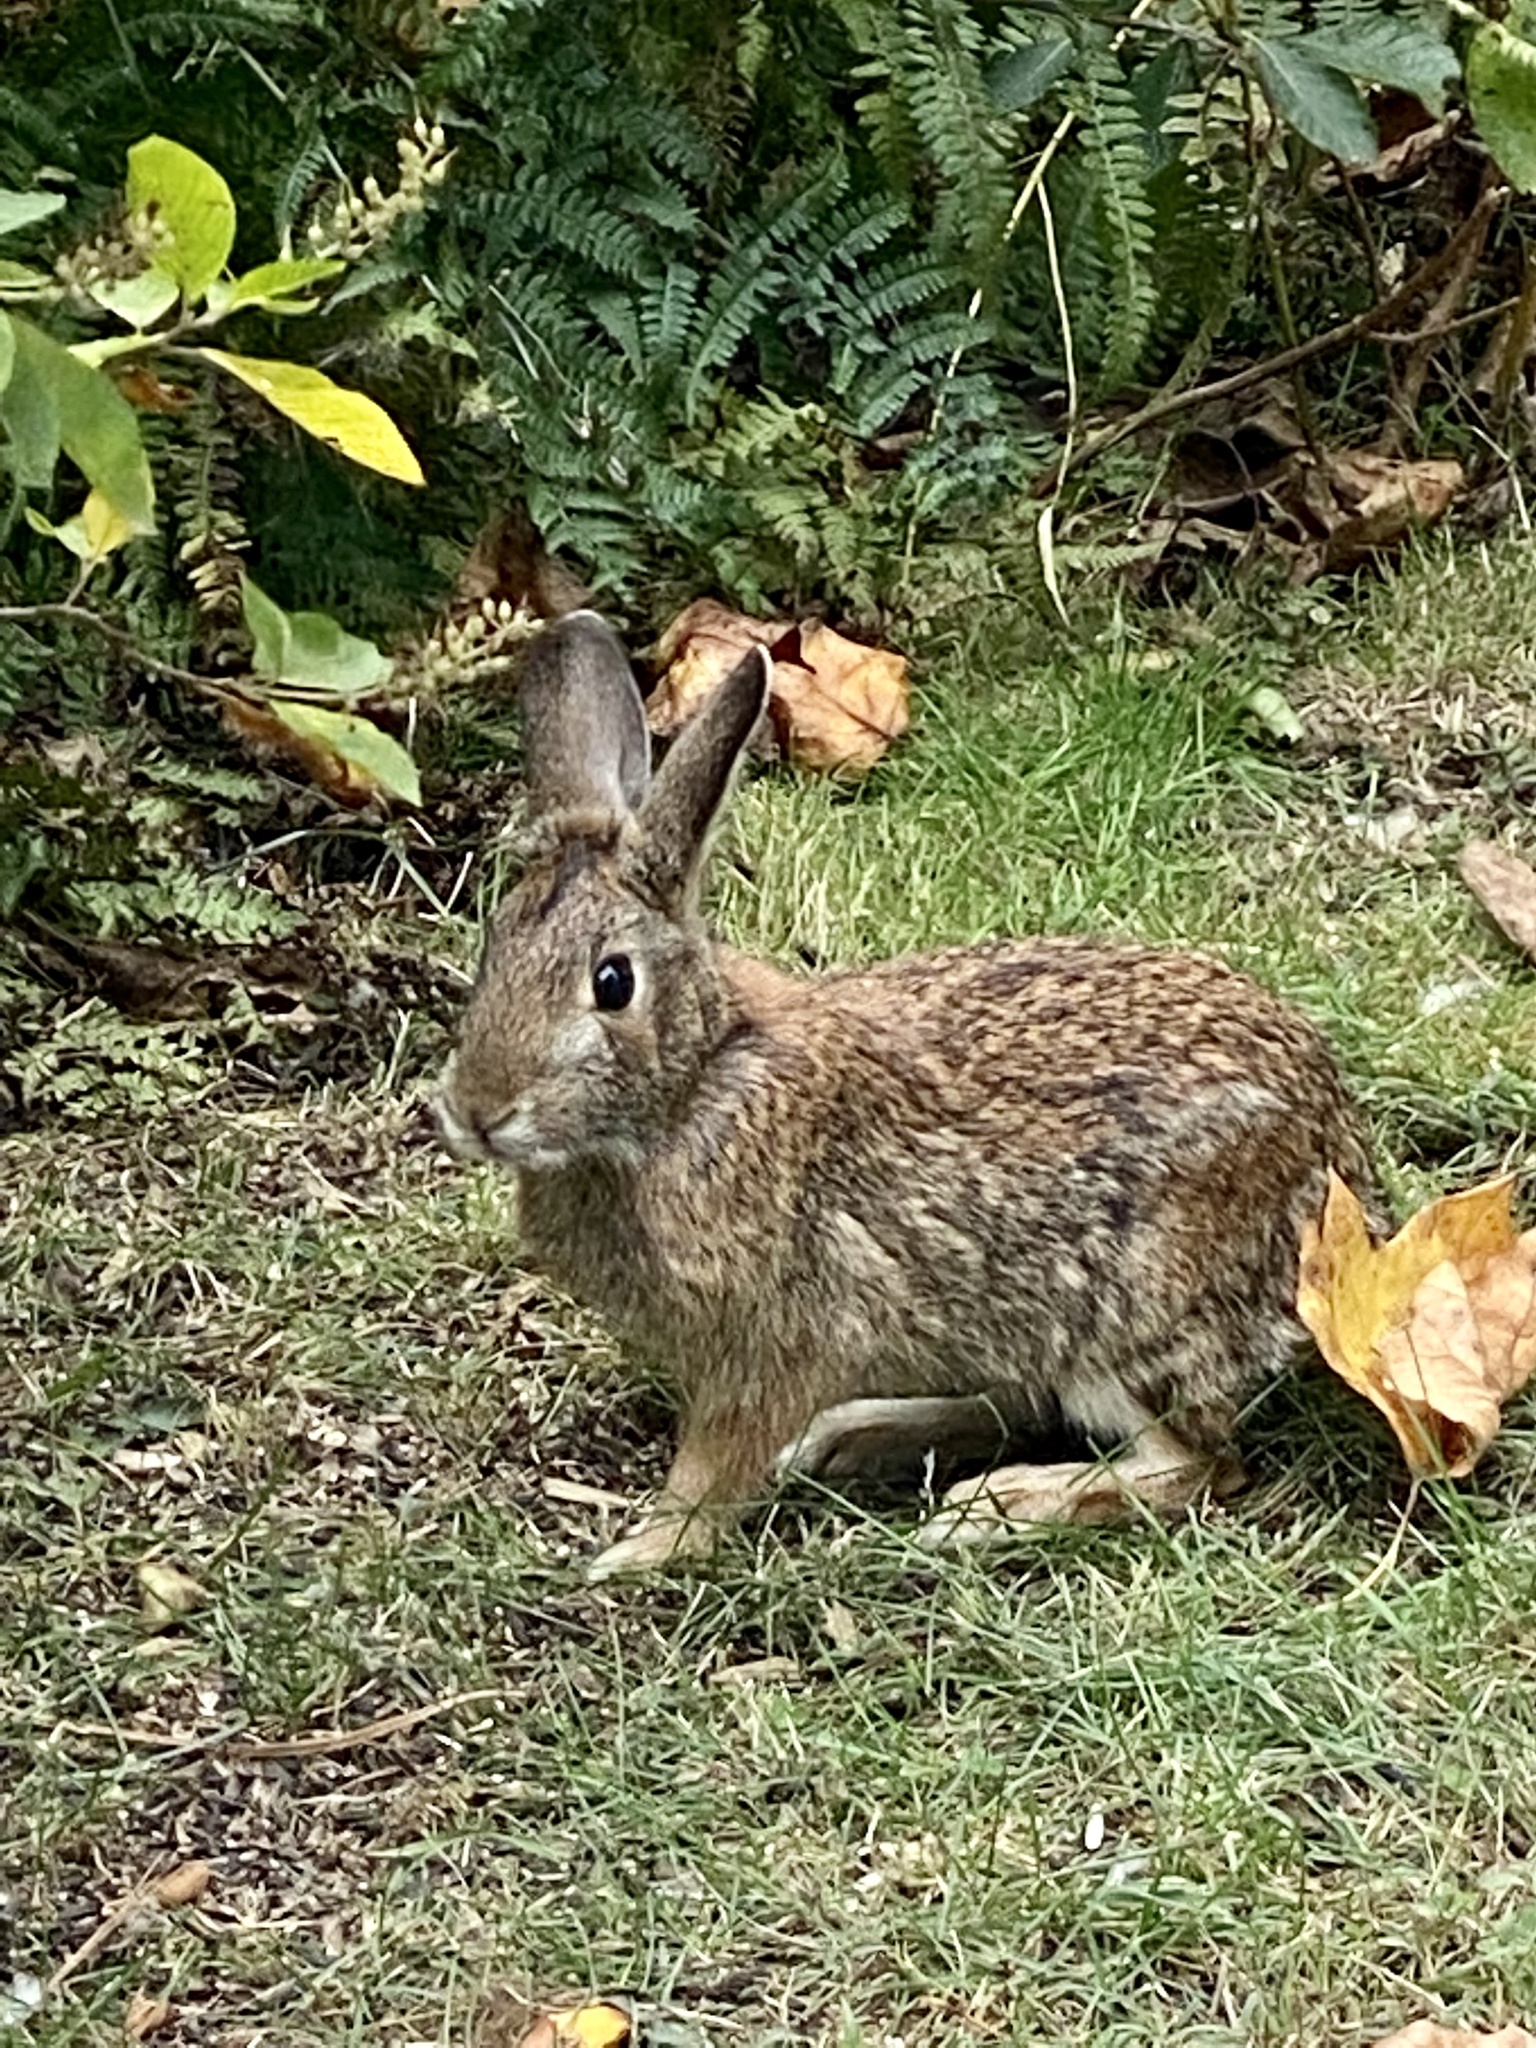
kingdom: Animalia
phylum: Chordata
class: Mammalia
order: Lagomorpha
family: Leporidae
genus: Sylvilagus
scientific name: Sylvilagus floridanus
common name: Eastern cottontail
